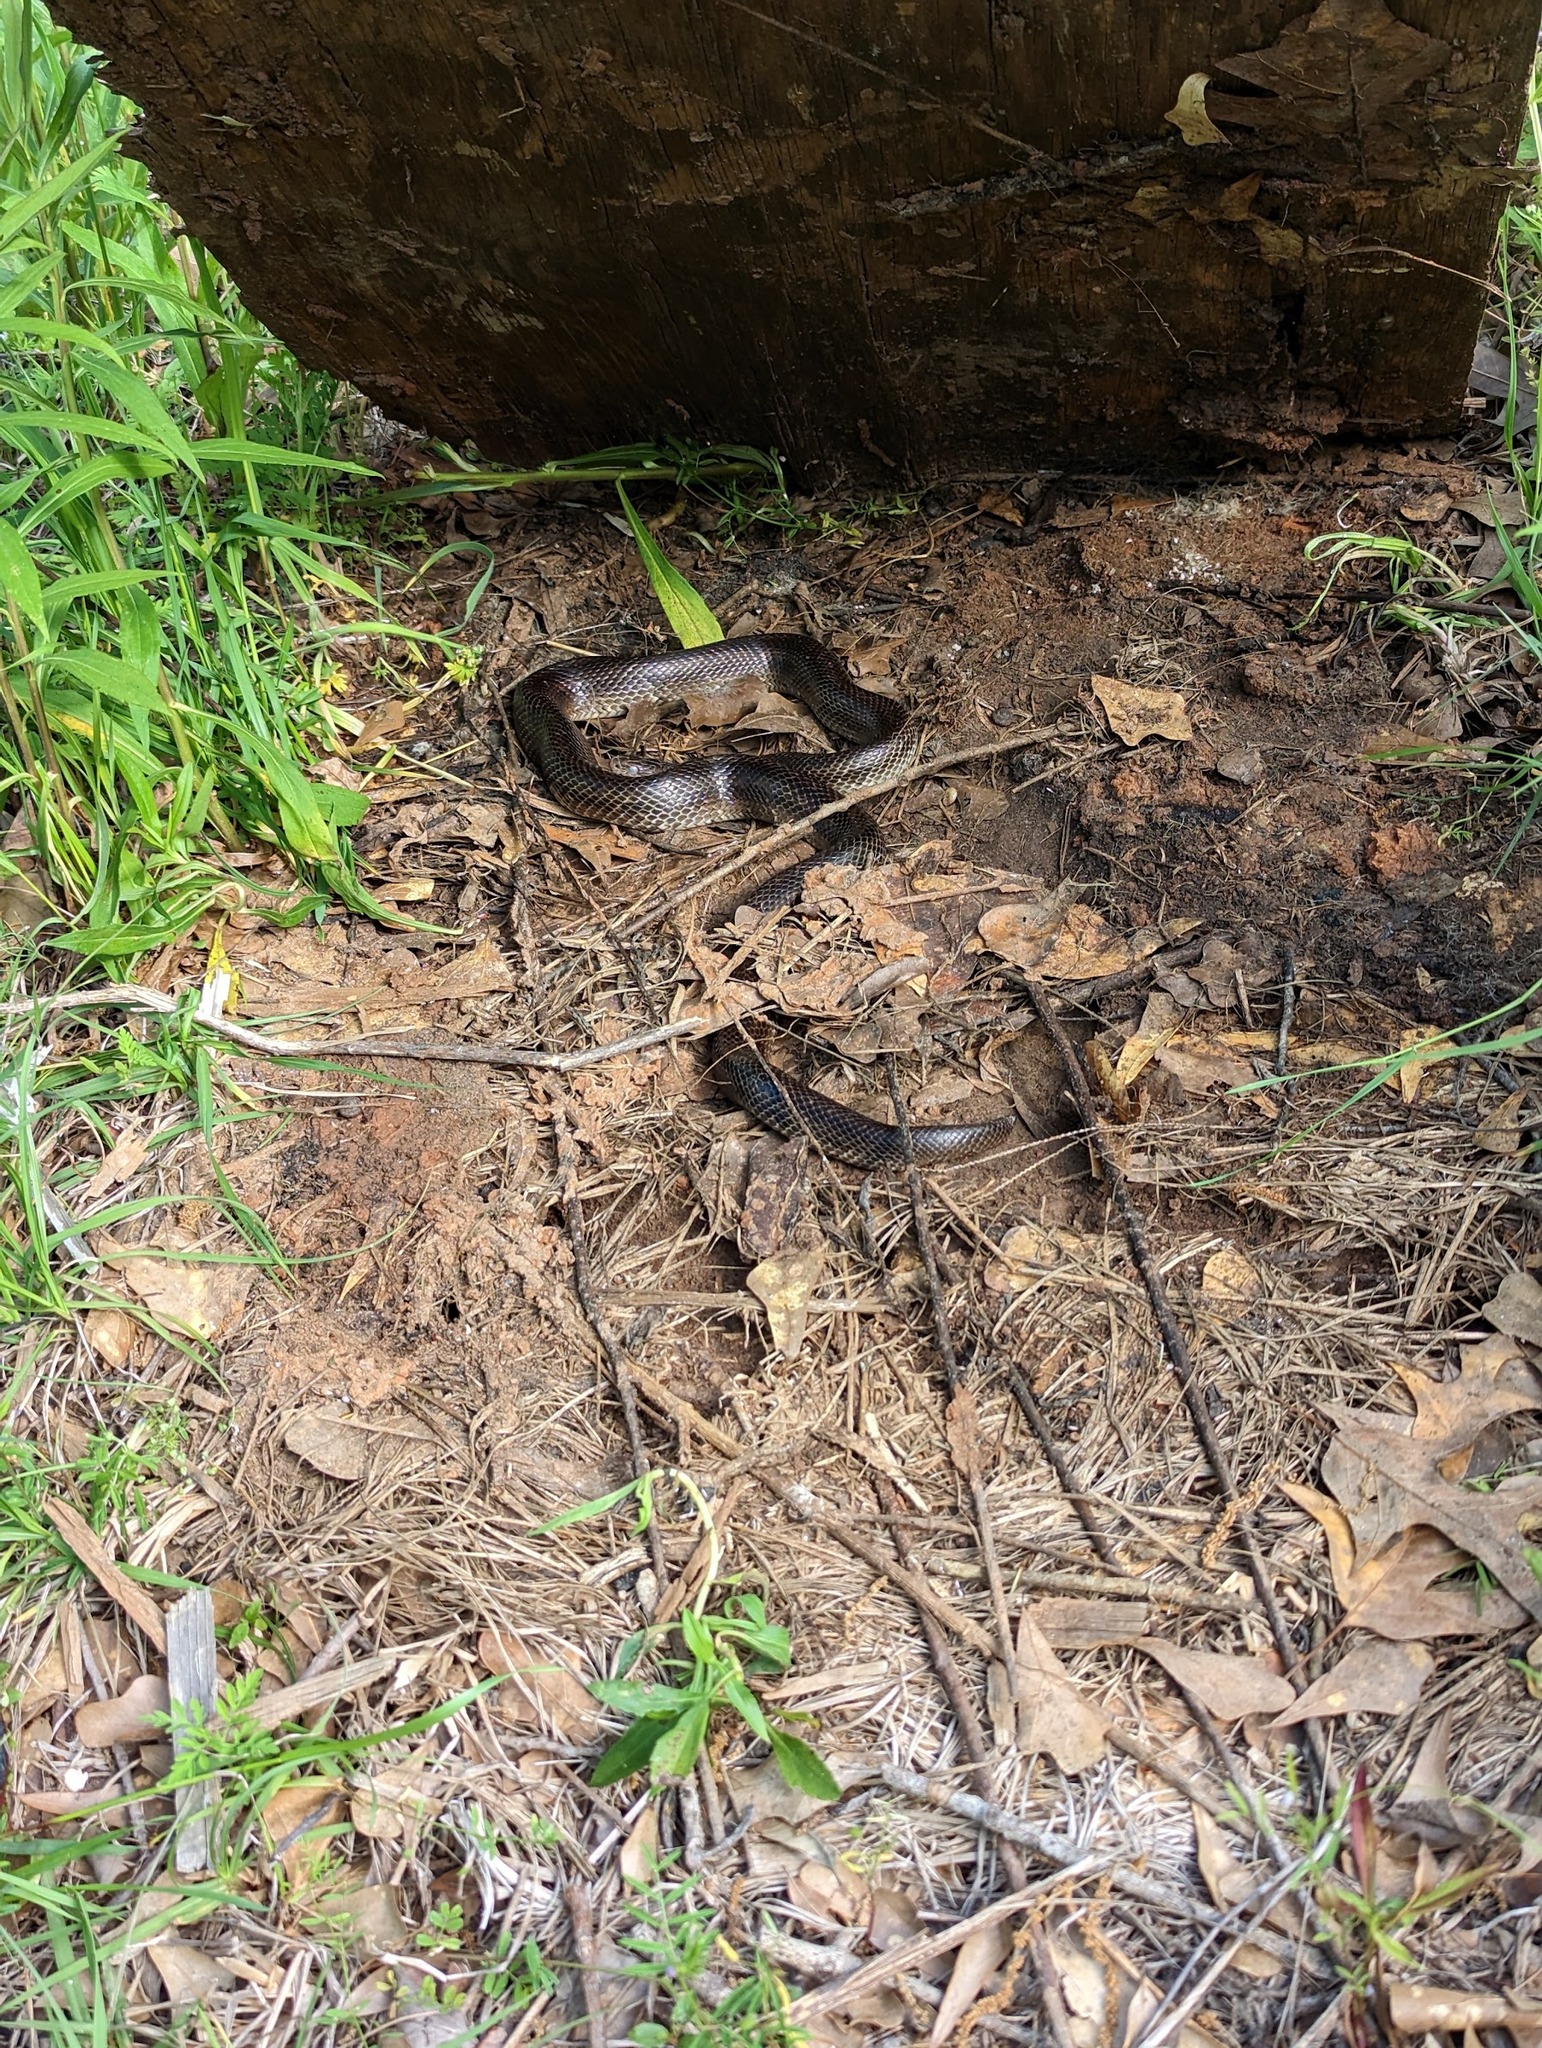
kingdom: Animalia
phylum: Chordata
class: Squamata
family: Colubridae
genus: Lampropeltis
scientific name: Lampropeltis calligaster
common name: Prairie kingsnake
